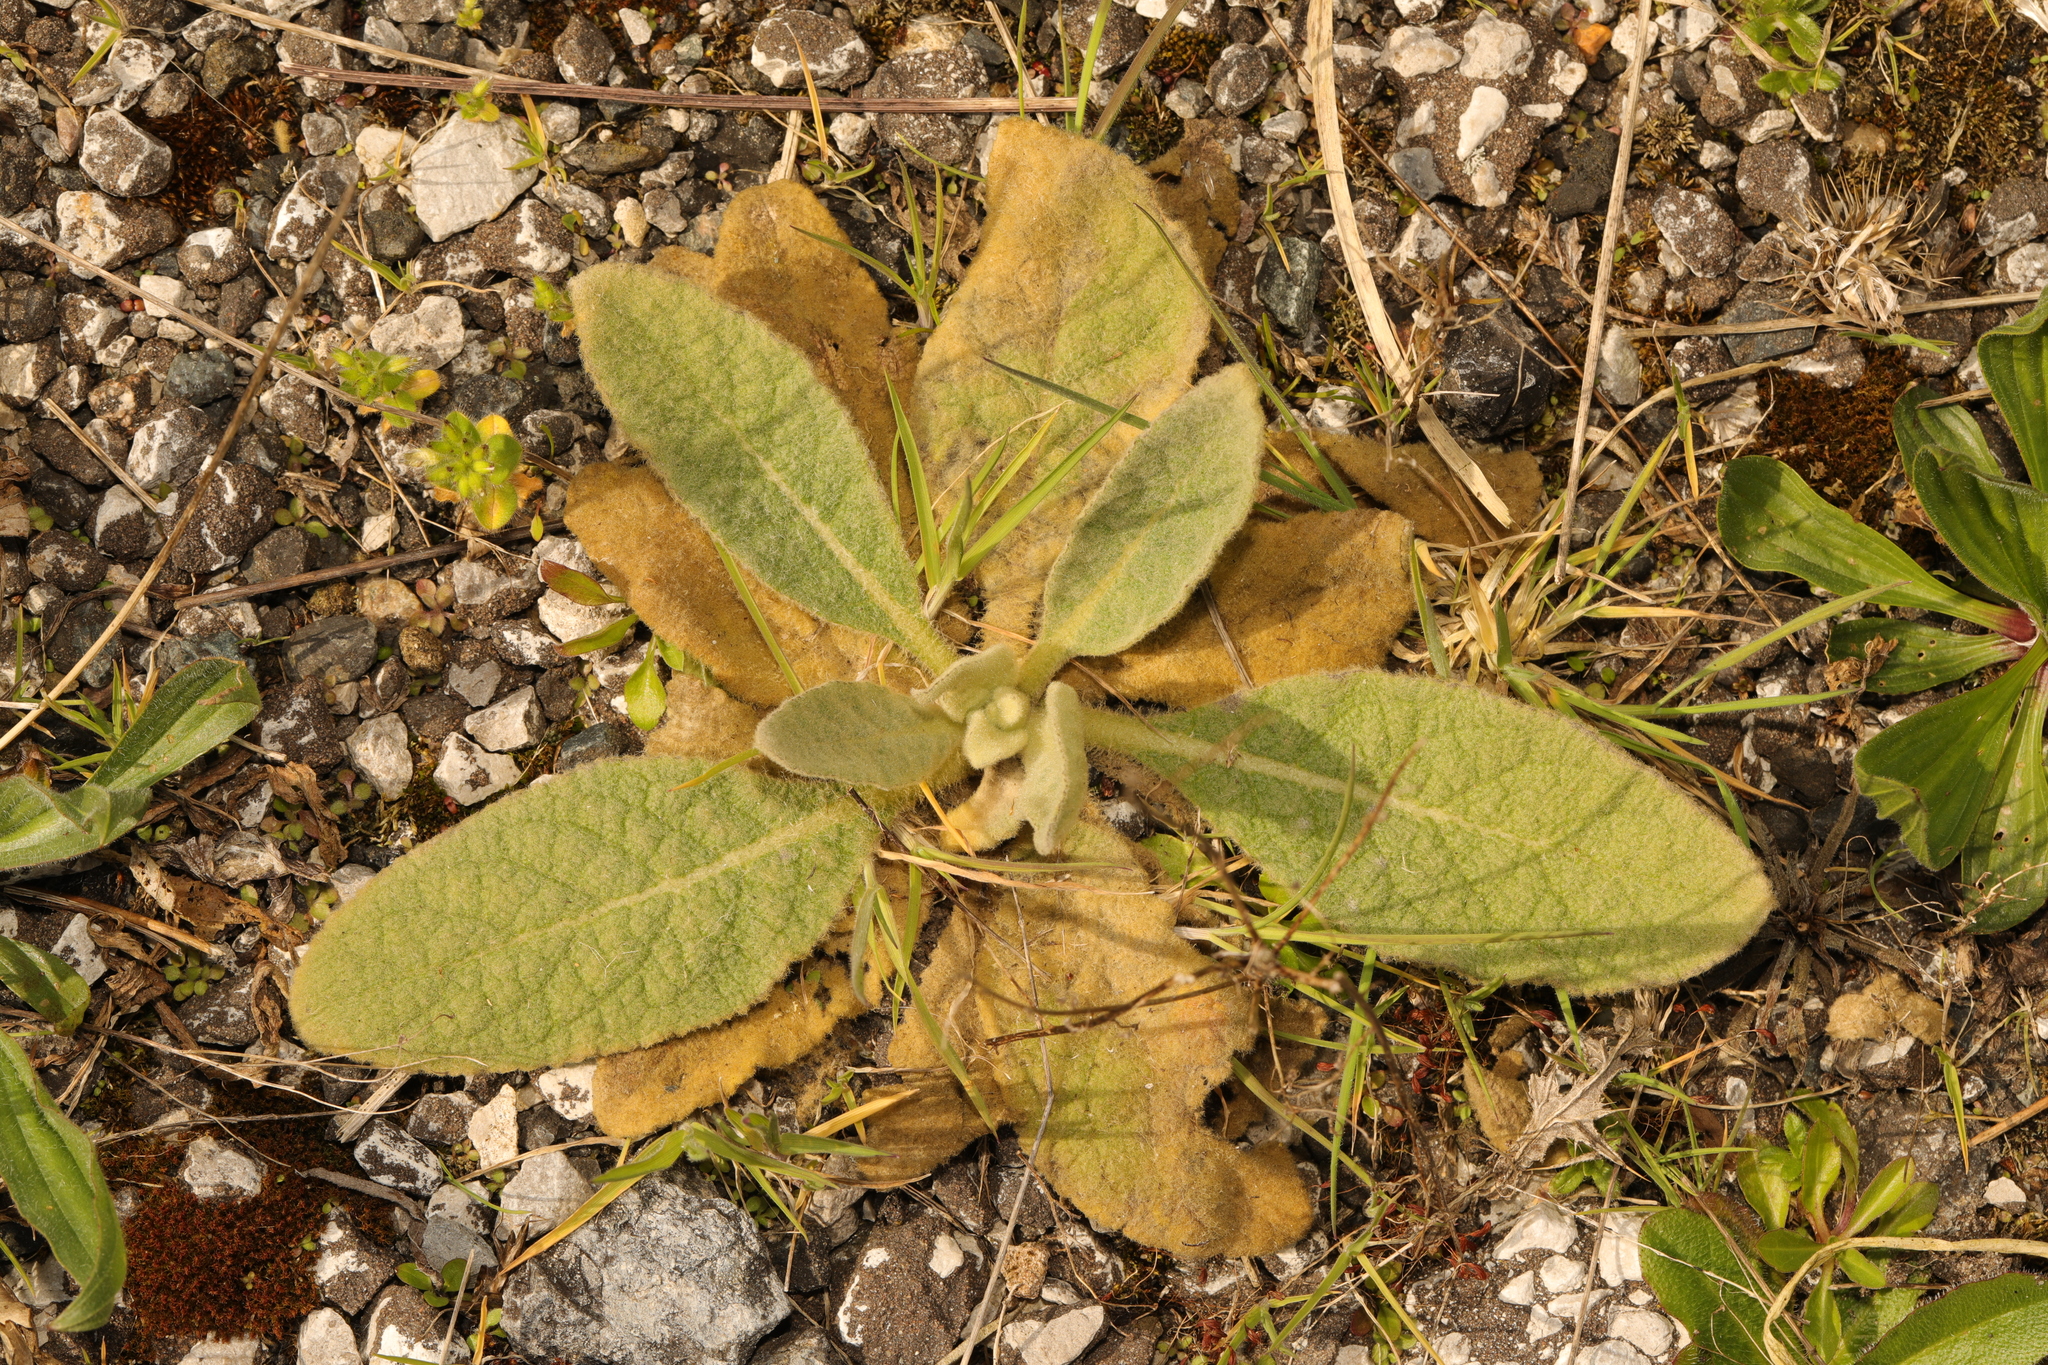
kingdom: Plantae
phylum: Tracheophyta
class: Magnoliopsida
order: Lamiales
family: Scrophulariaceae
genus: Verbascum
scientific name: Verbascum thapsus
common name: Common mullein
